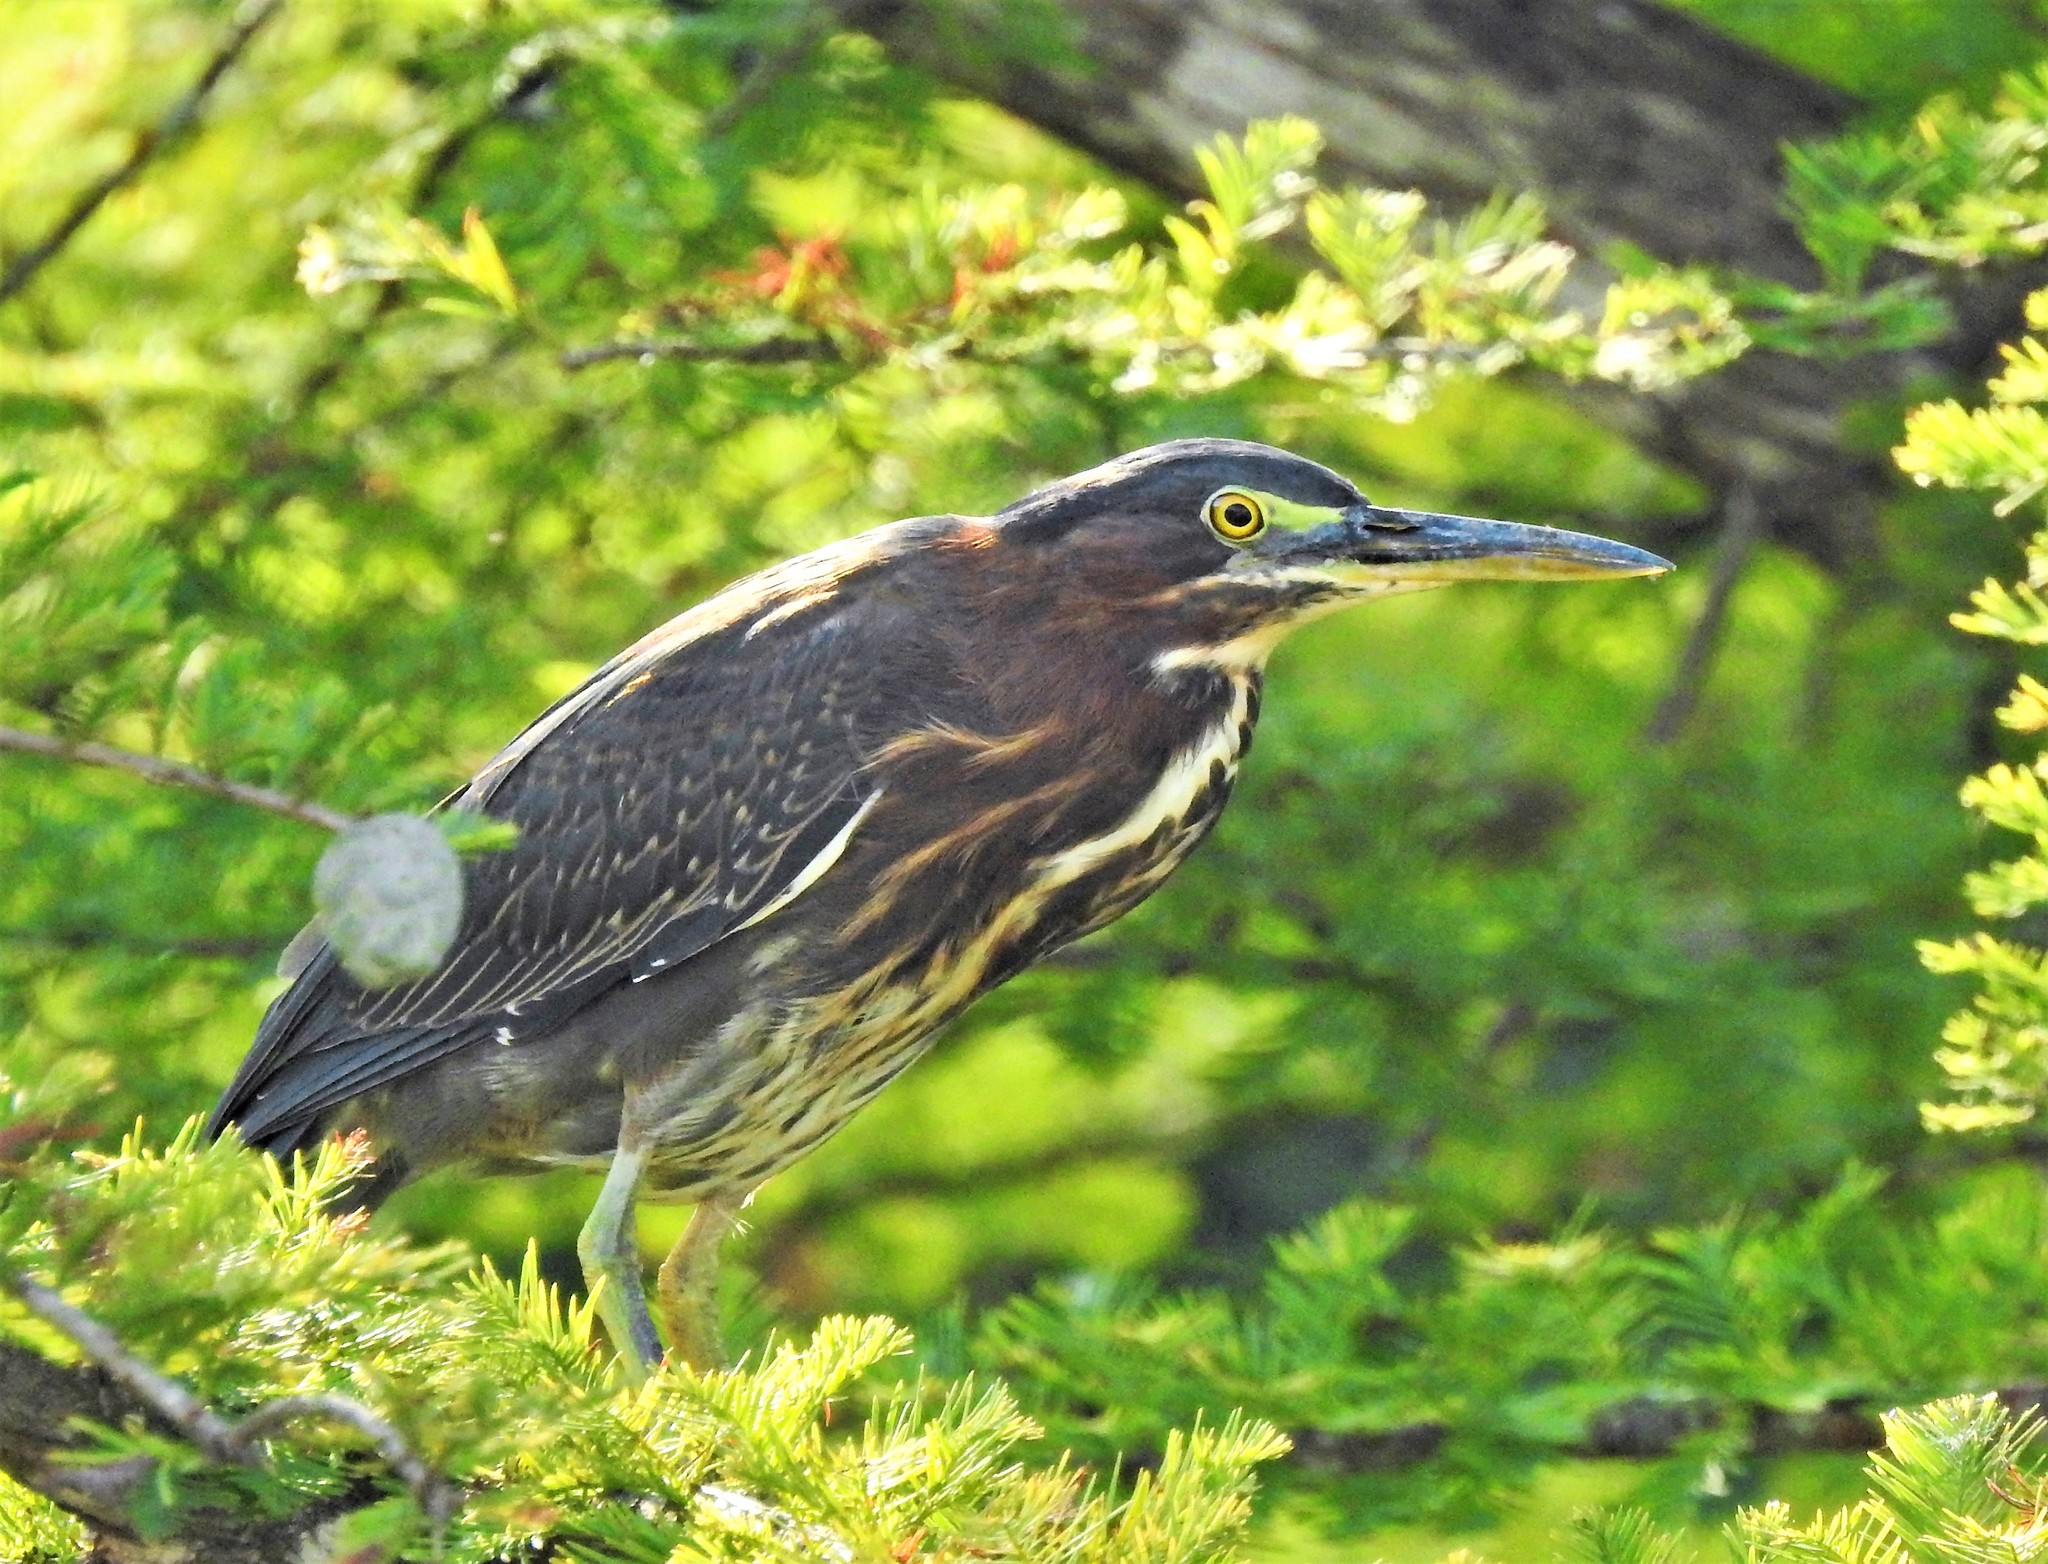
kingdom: Animalia
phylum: Chordata
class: Aves
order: Pelecaniformes
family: Ardeidae
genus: Butorides
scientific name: Butorides virescens
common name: Green heron
